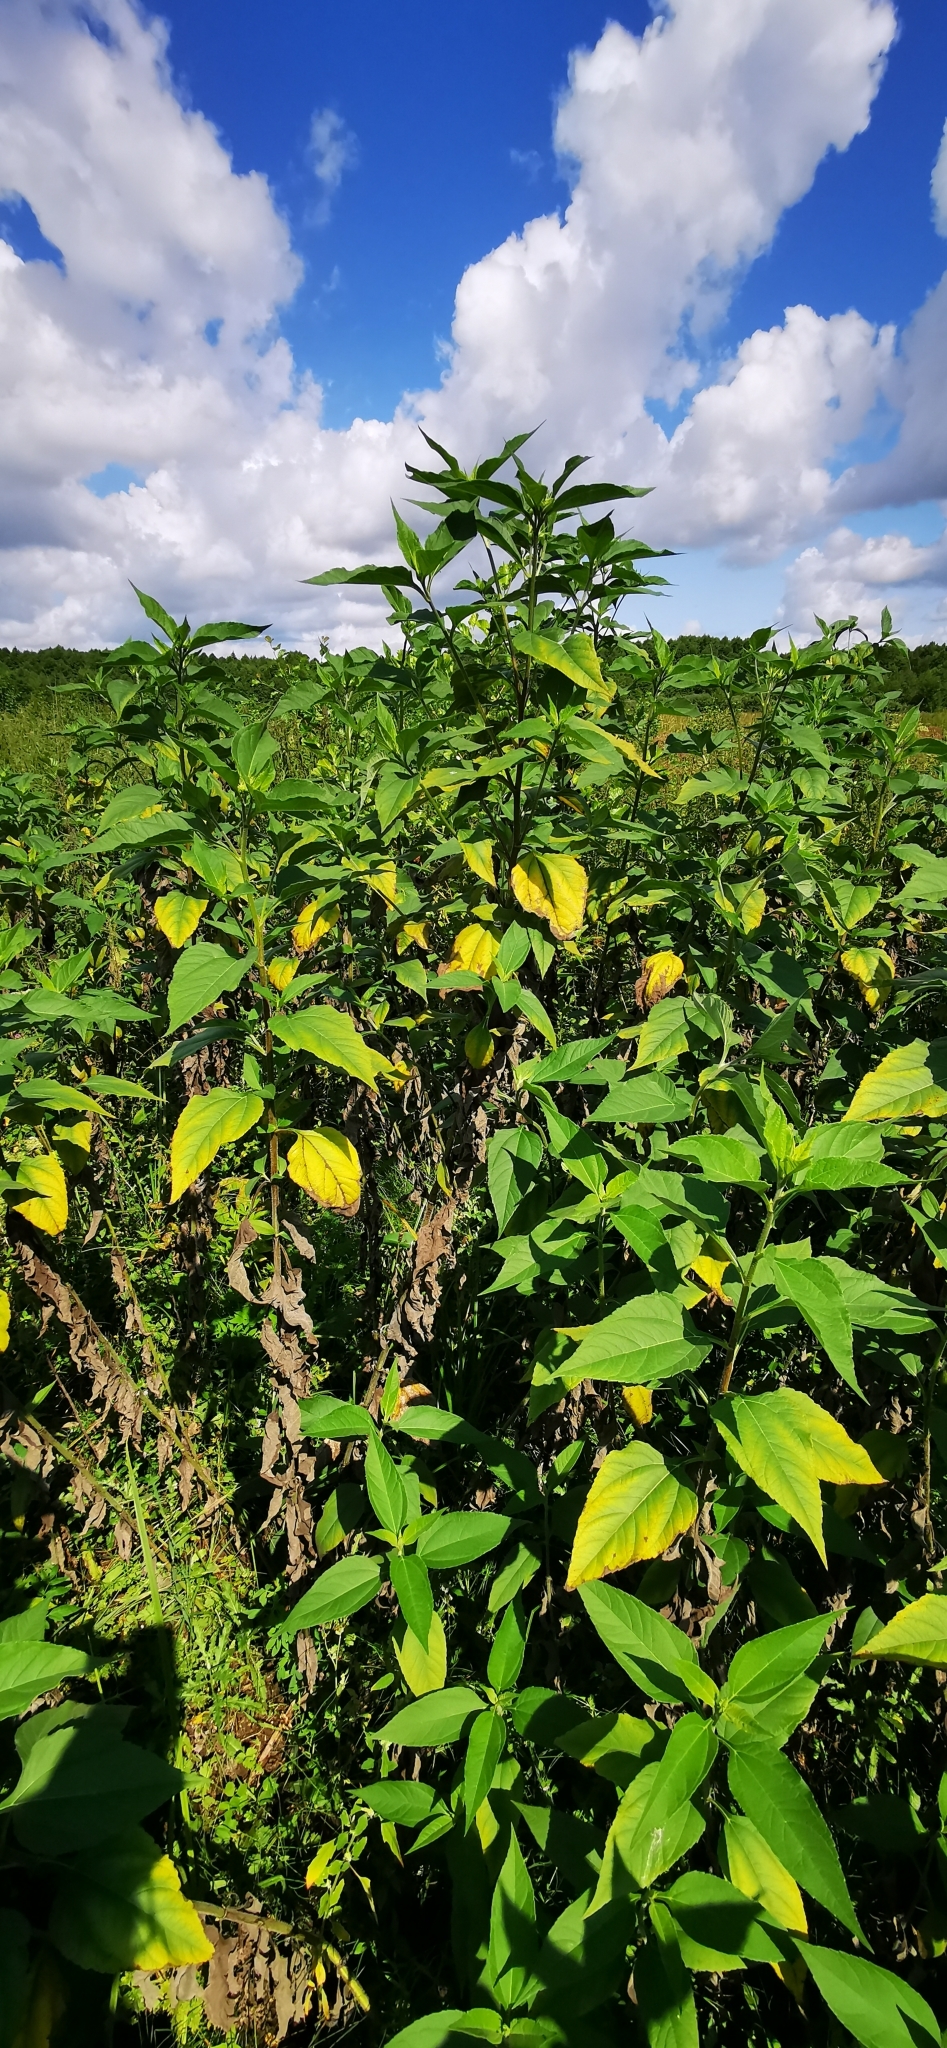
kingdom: Plantae
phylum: Tracheophyta
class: Magnoliopsida
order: Asterales
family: Asteraceae
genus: Helianthus
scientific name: Helianthus tuberosus
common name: Jerusalem artichoke
